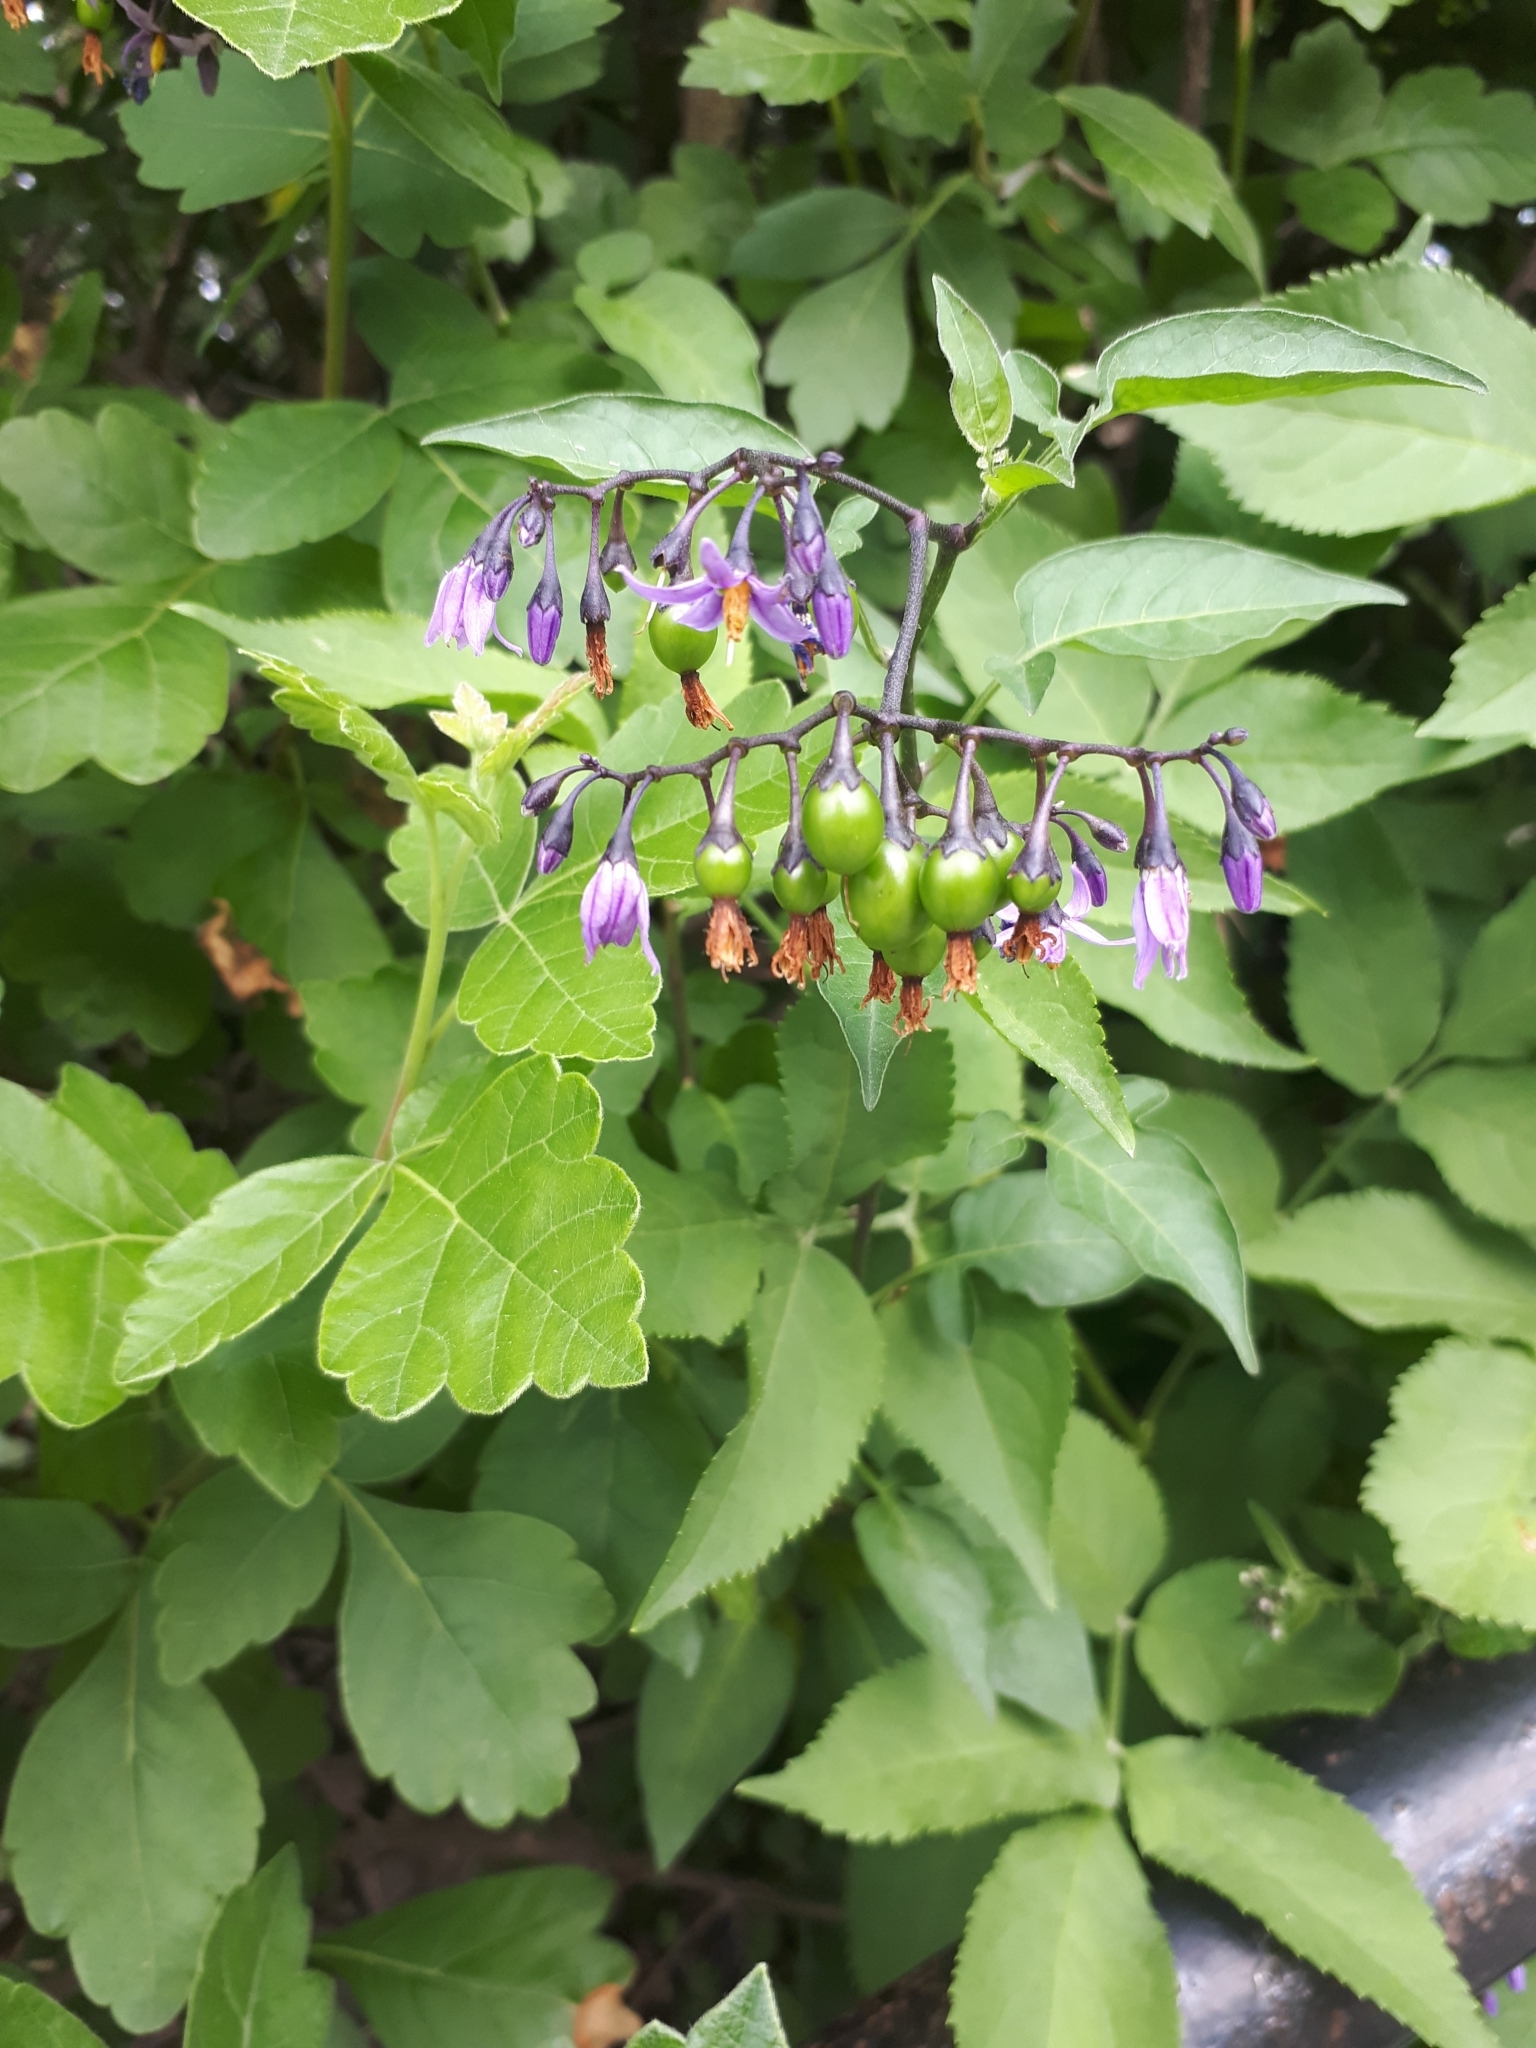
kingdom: Plantae
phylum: Tracheophyta
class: Magnoliopsida
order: Solanales
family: Solanaceae
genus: Solanum
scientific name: Solanum dulcamara
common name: Climbing nightshade
